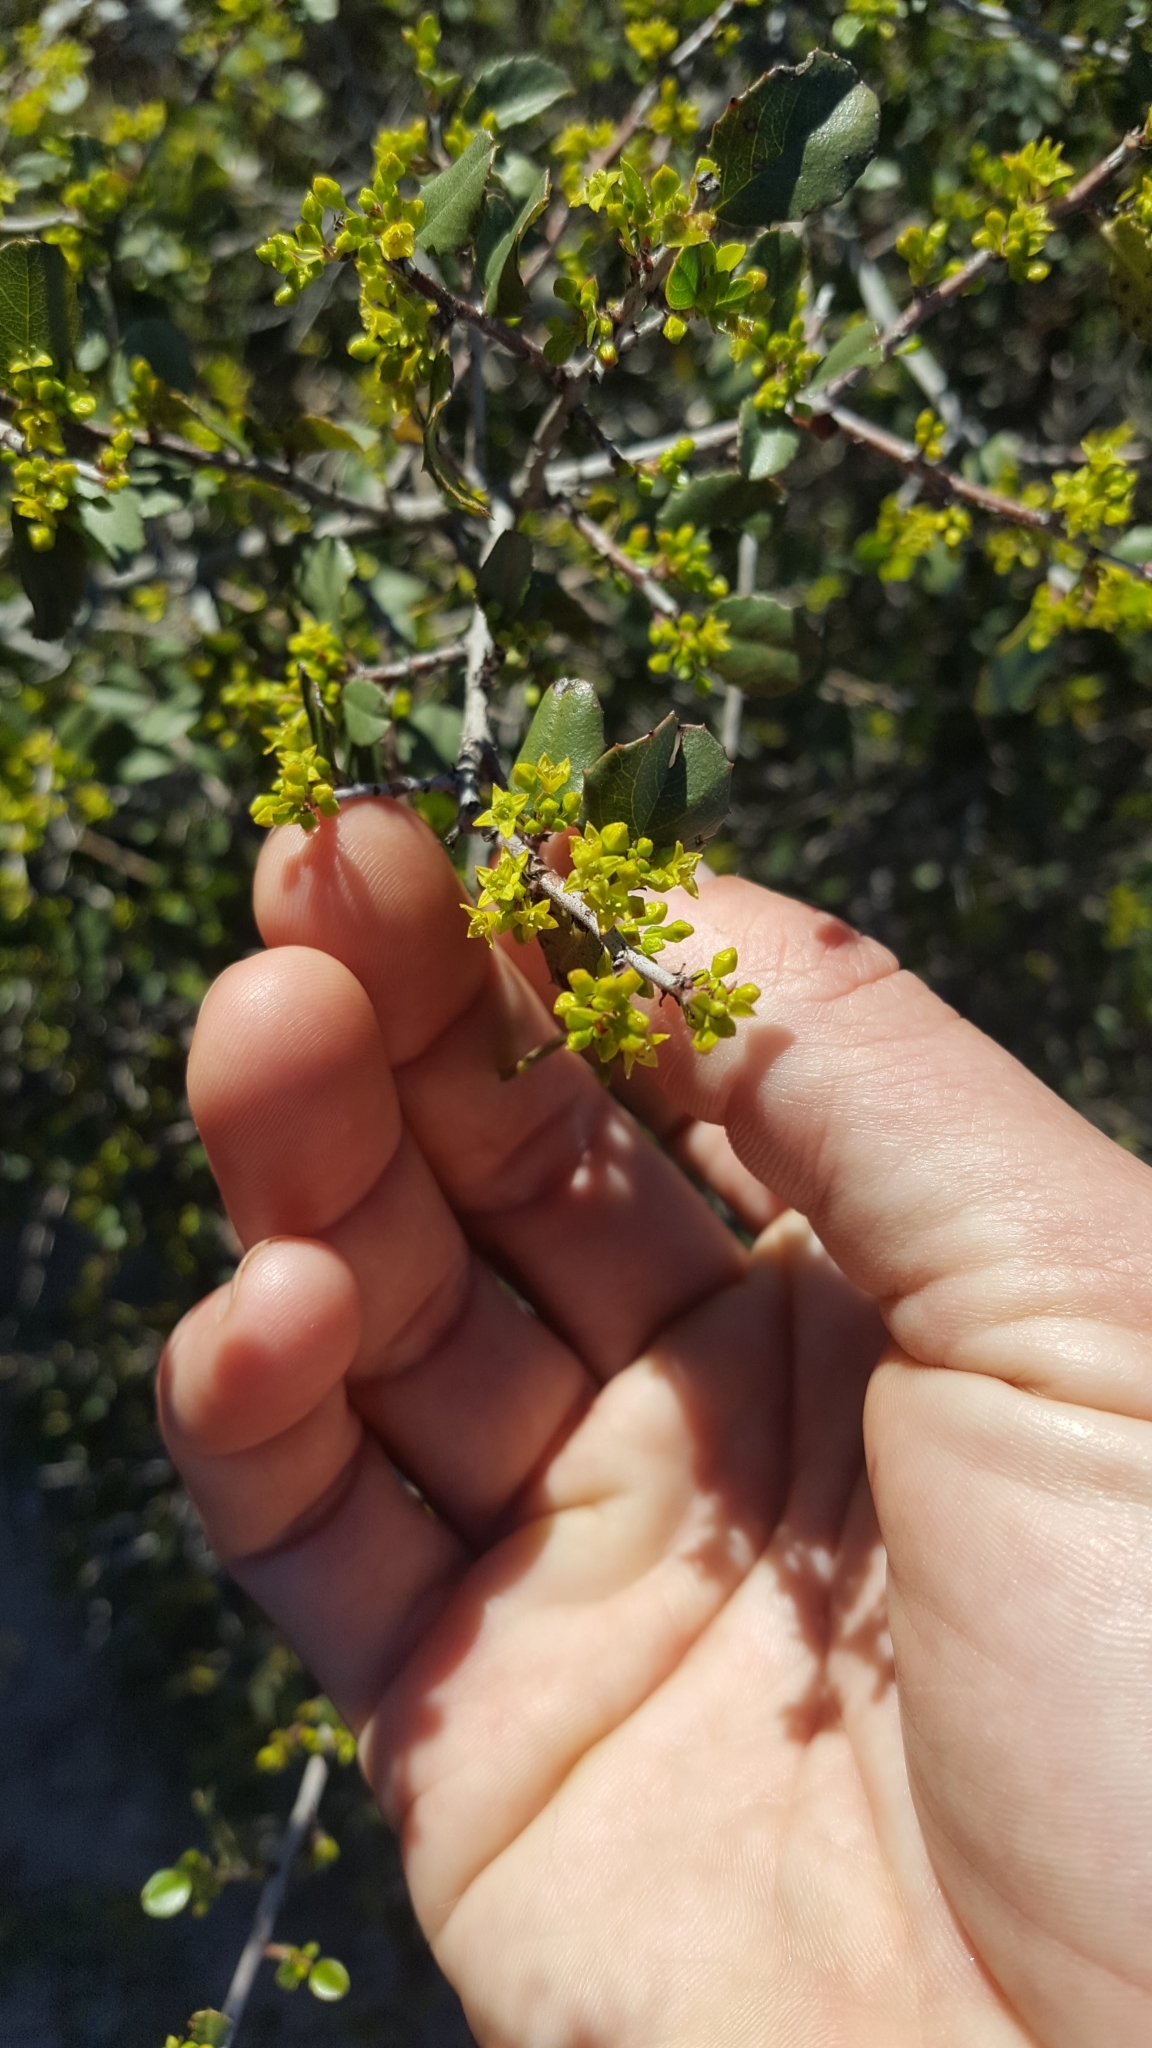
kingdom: Plantae
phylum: Tracheophyta
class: Magnoliopsida
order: Rosales
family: Rhamnaceae
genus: Endotropis
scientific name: Endotropis crocea
